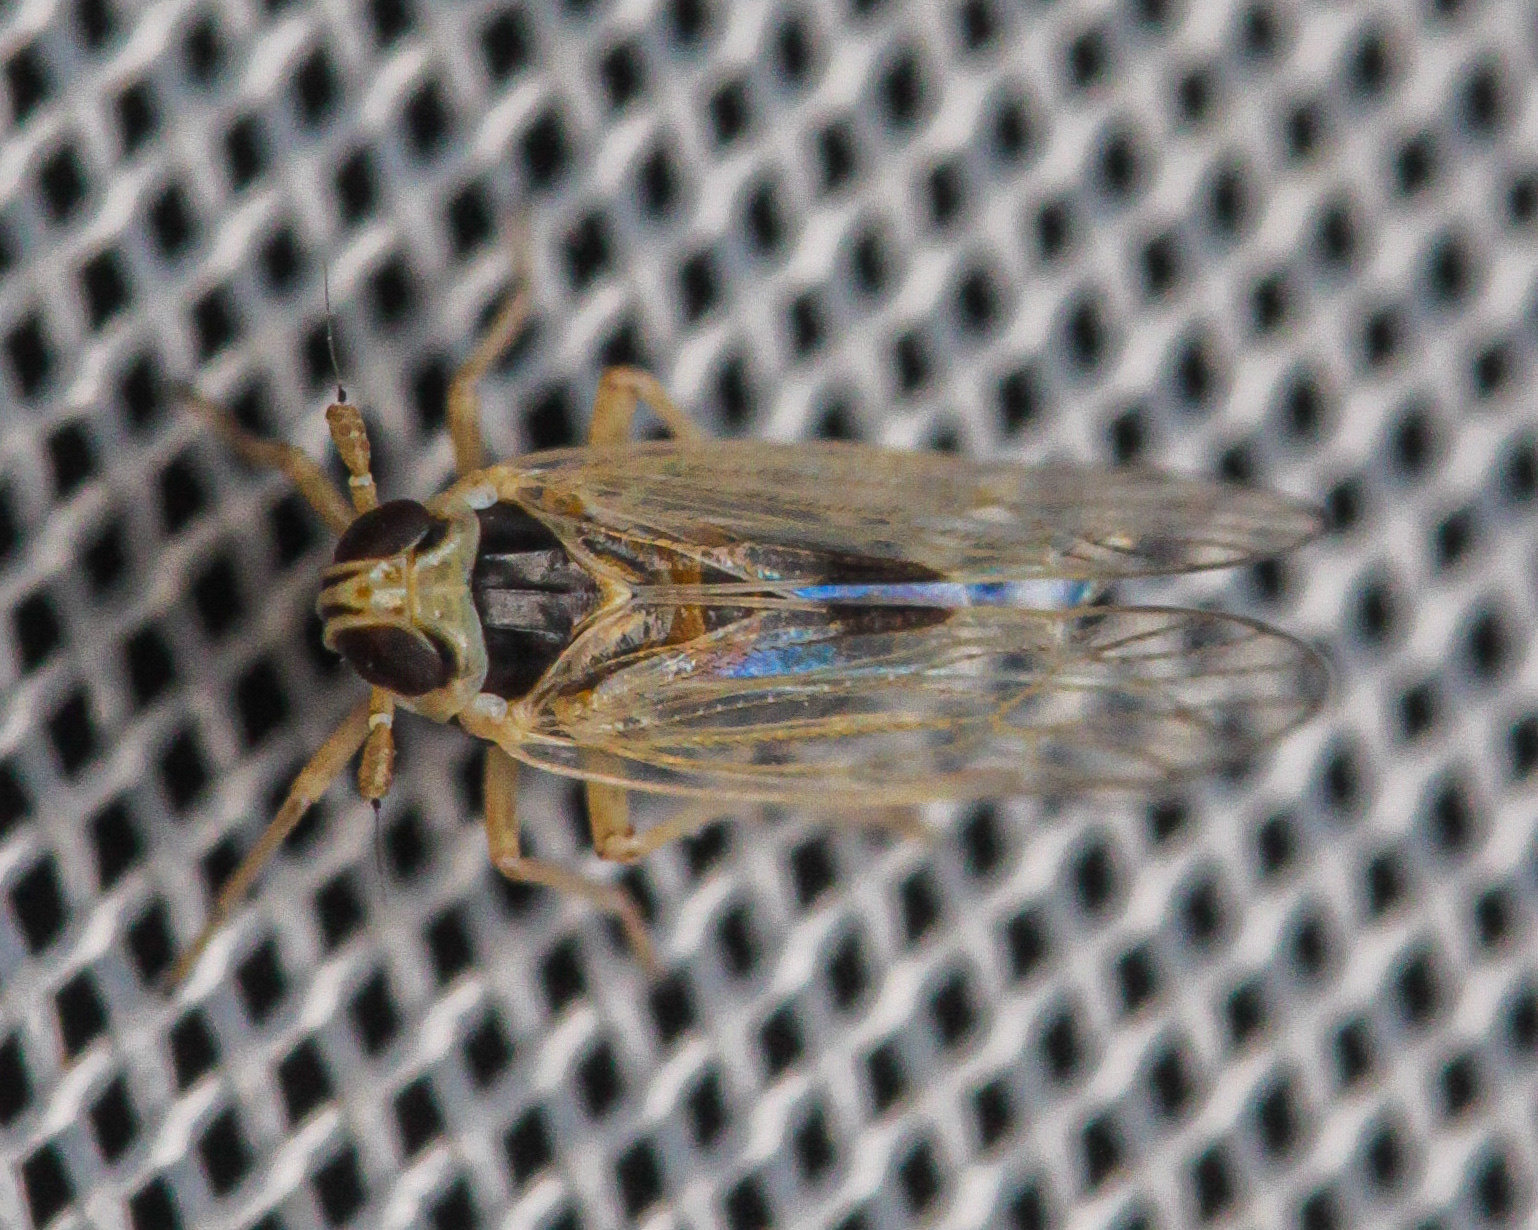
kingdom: Animalia
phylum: Arthropoda
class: Insecta
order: Hemiptera
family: Delphacidae
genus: Laodelphax
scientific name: Laodelphax striatellus
